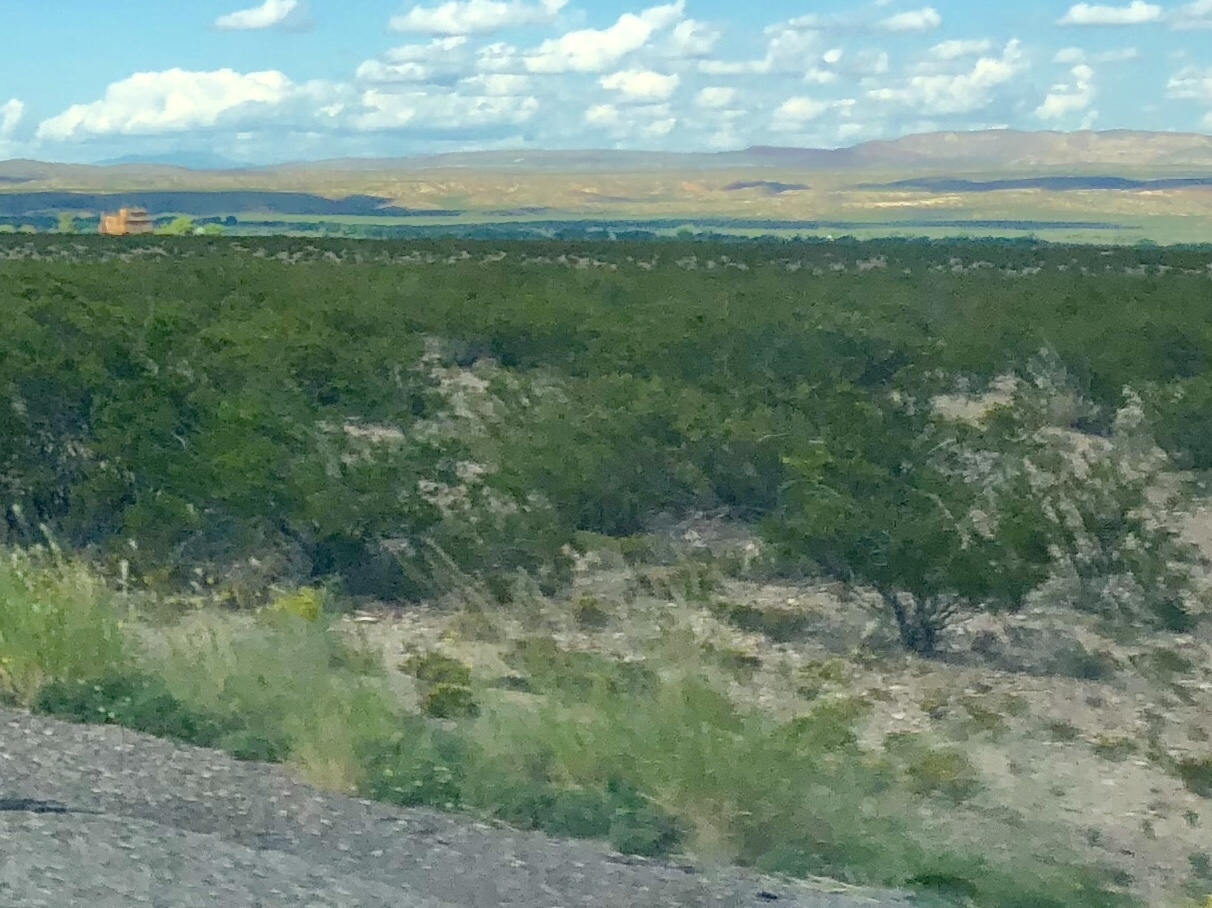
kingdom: Plantae
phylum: Tracheophyta
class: Magnoliopsida
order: Zygophyllales
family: Zygophyllaceae
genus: Larrea
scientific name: Larrea tridentata
